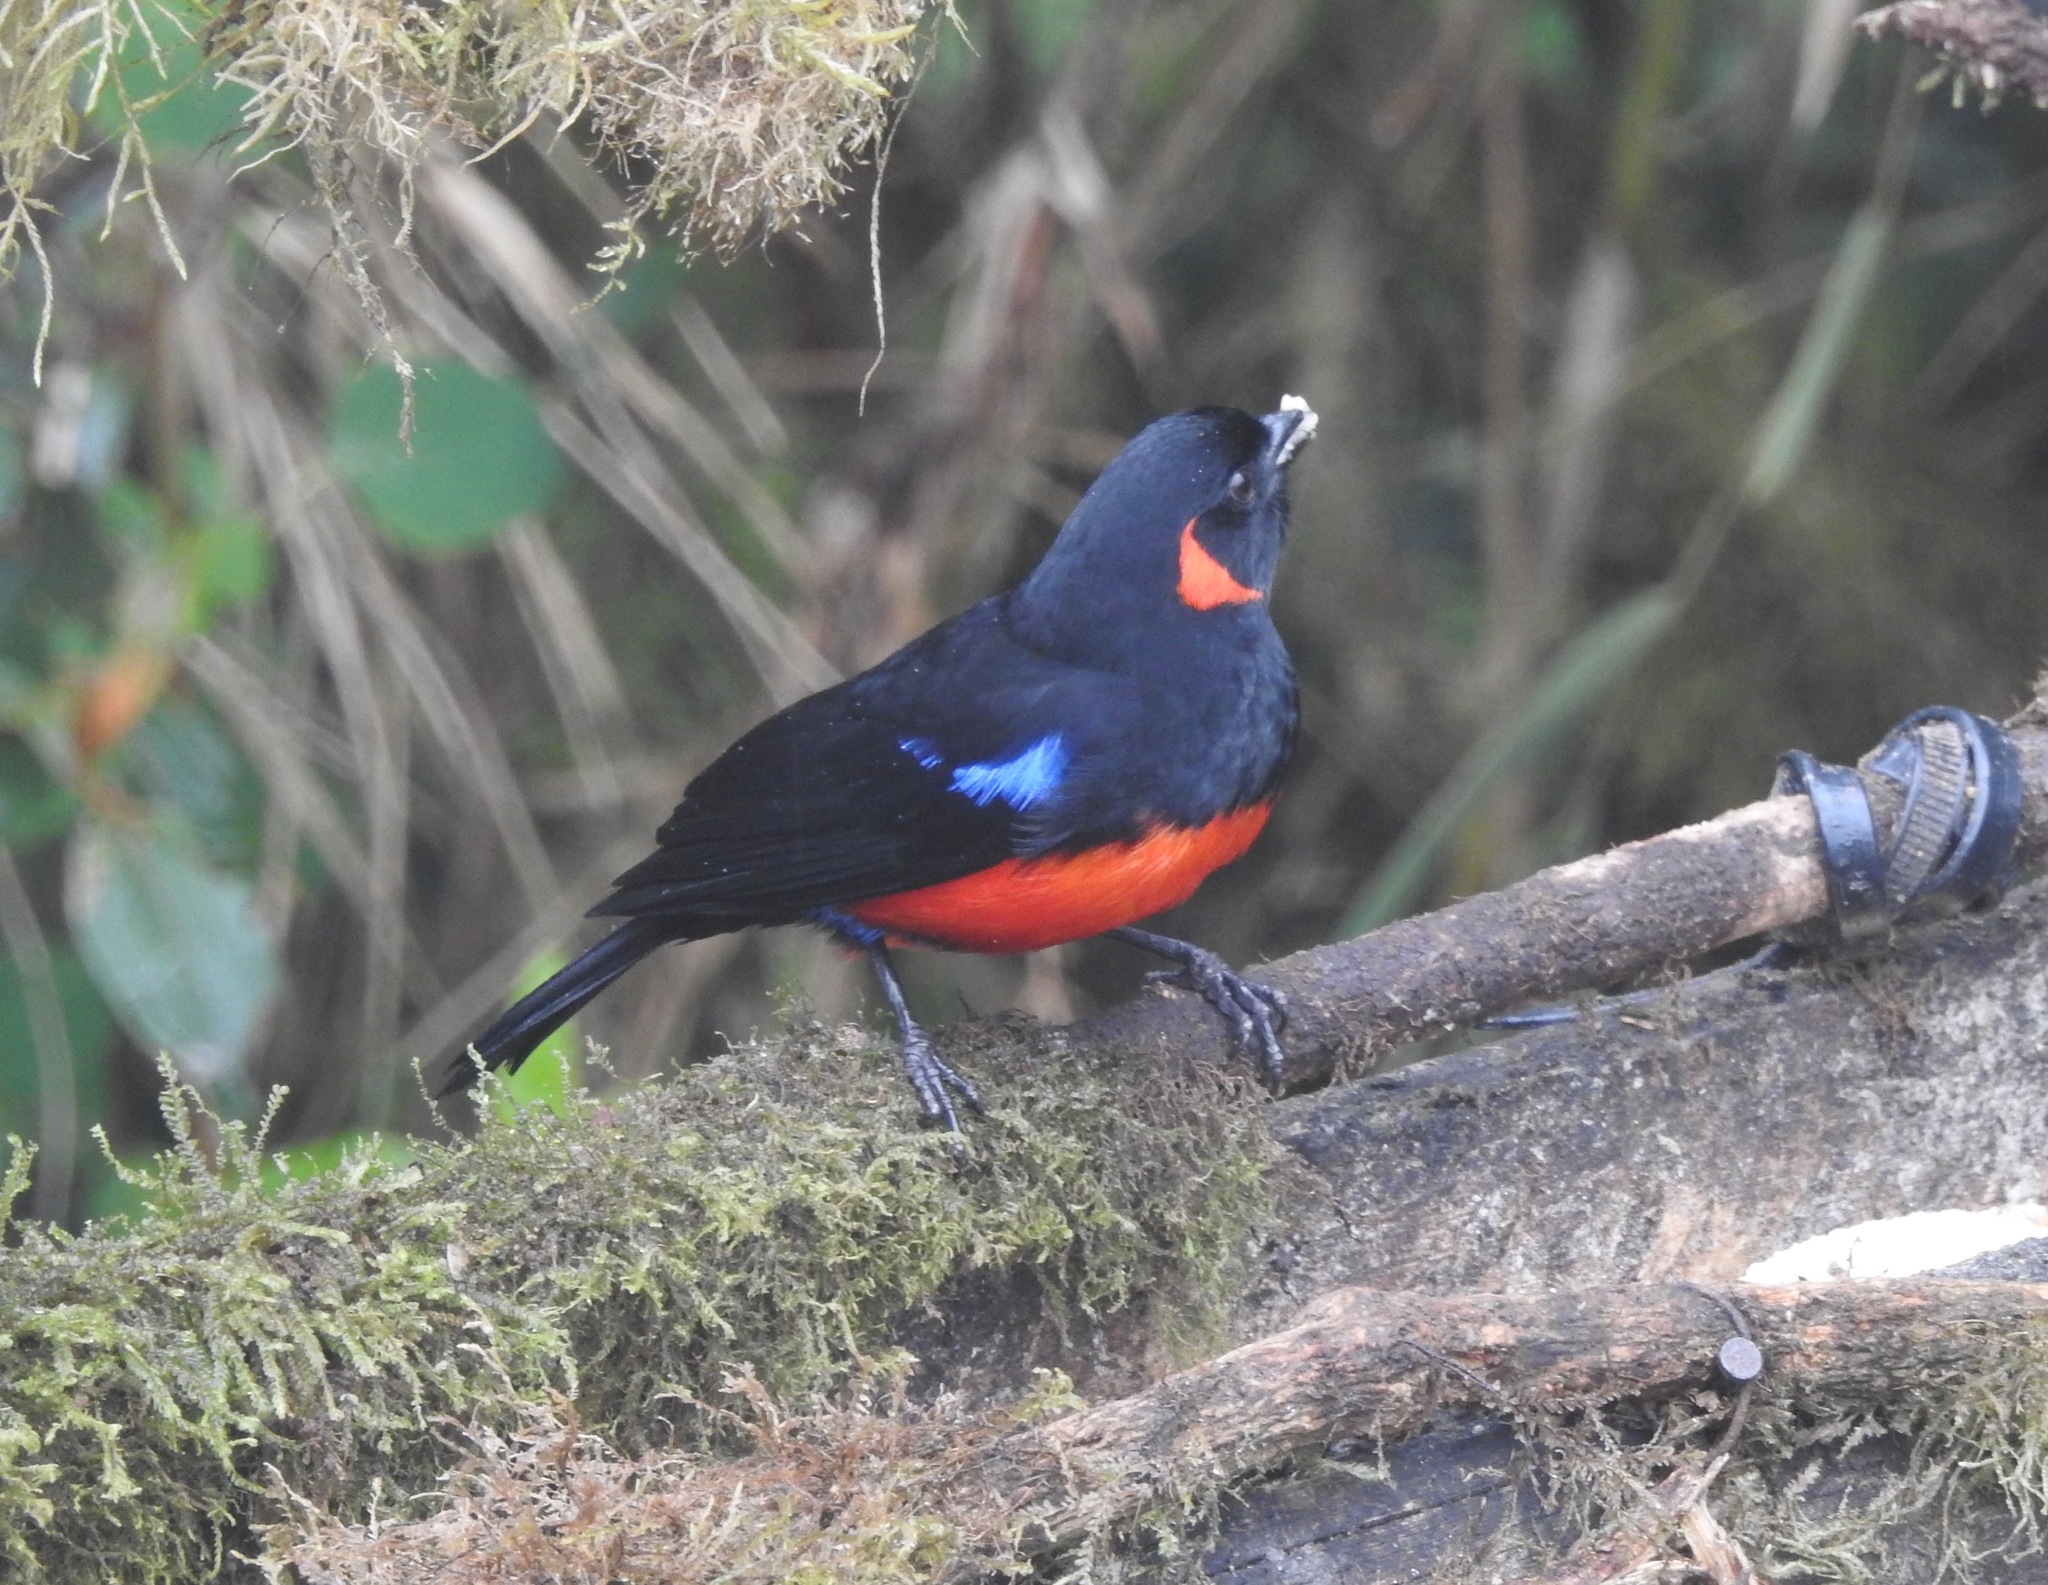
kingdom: Animalia
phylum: Chordata
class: Aves
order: Passeriformes
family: Thraupidae
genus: Anisognathus
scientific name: Anisognathus igniventris
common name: Scarlet-bellied mountain tanager
